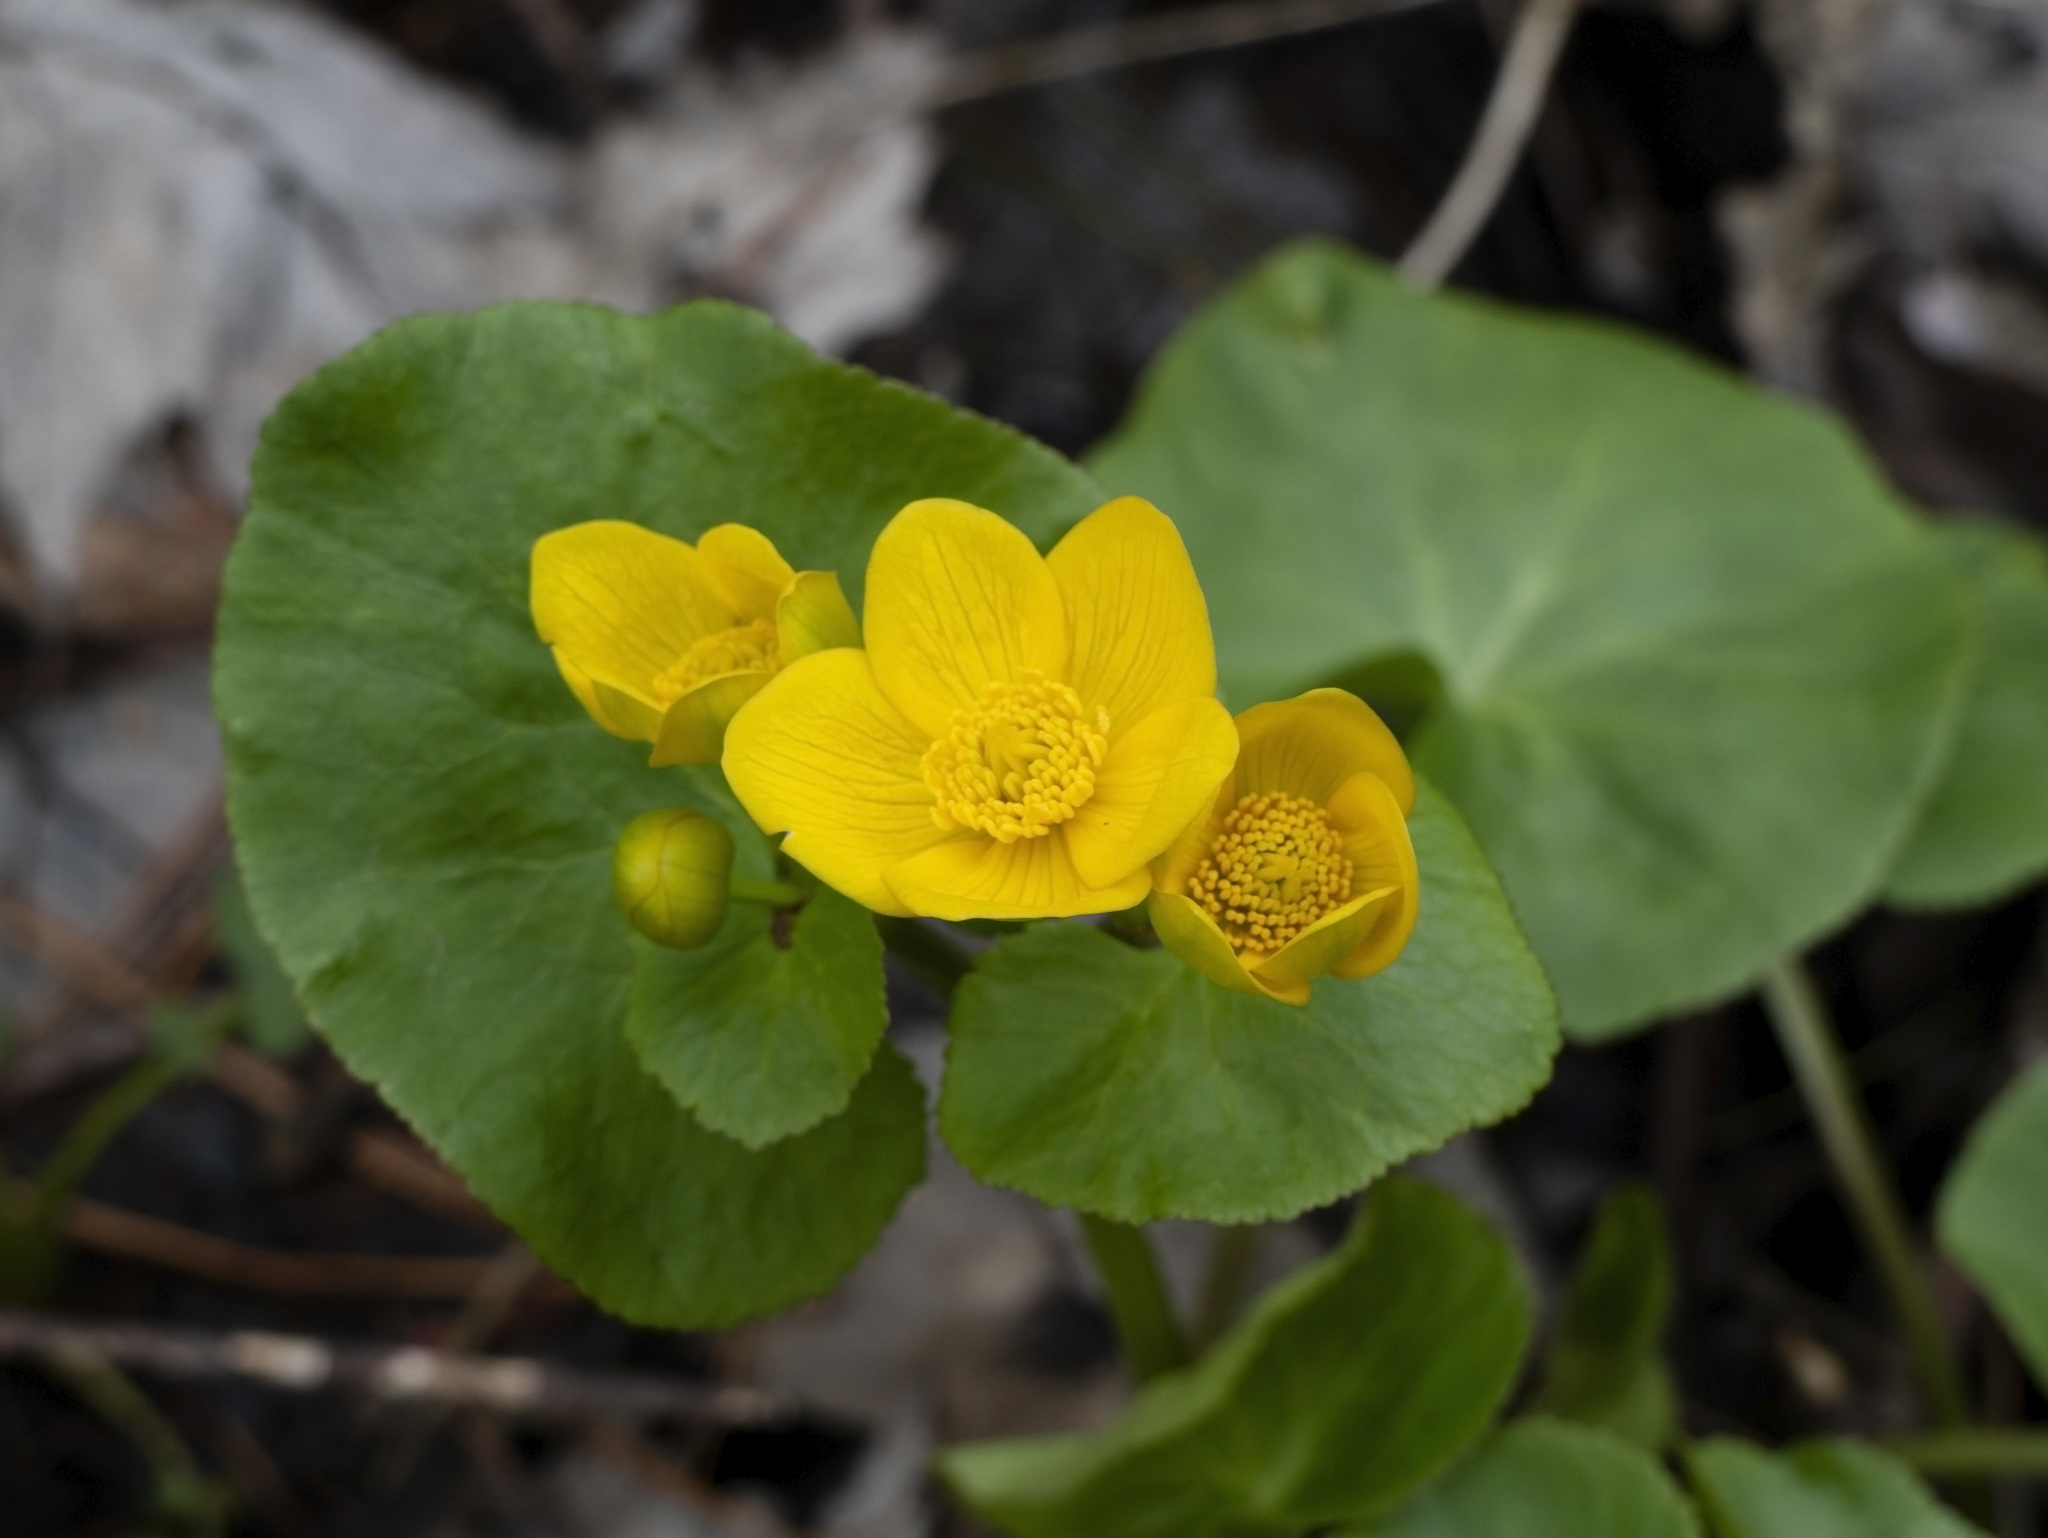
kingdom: Plantae
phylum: Tracheophyta
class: Magnoliopsida
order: Ranunculales
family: Ranunculaceae
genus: Caltha
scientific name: Caltha palustris
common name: Marsh marigold
